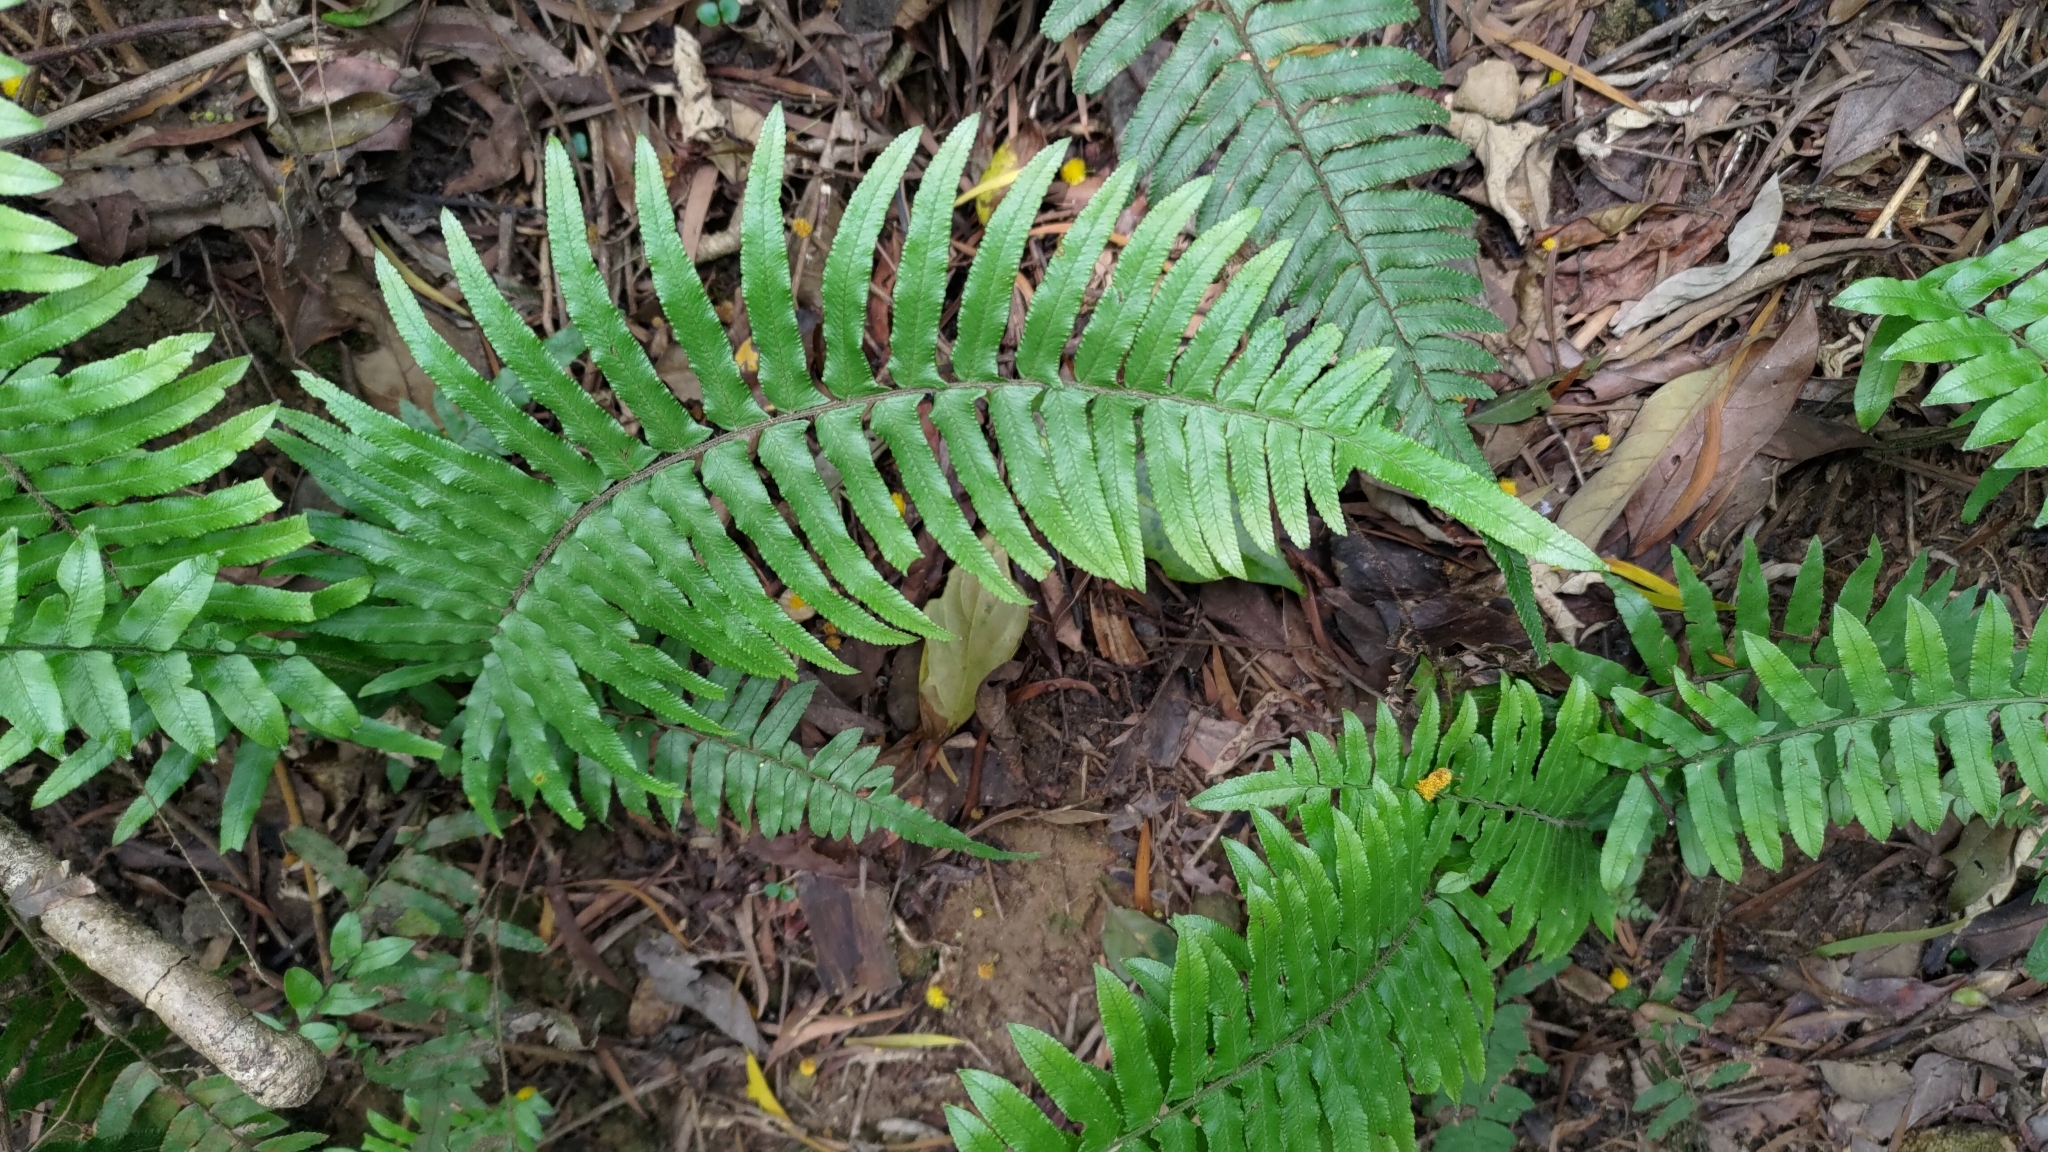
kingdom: Plantae
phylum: Tracheophyta
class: Polypodiopsida
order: Polypodiales
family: Dennstaedtiaceae
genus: Microlepia
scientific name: Microlepia hookeriana
